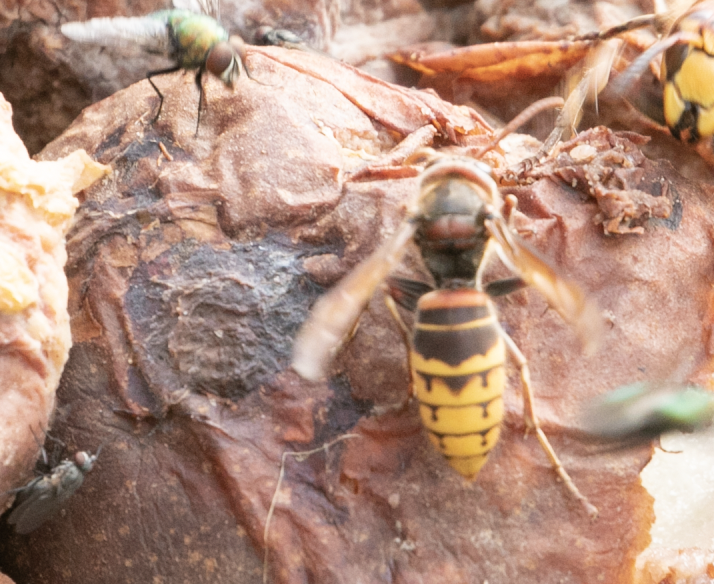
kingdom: Animalia
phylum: Arthropoda
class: Insecta
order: Hymenoptera
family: Vespidae
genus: Vespa
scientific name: Vespa crabro
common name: Hornet
